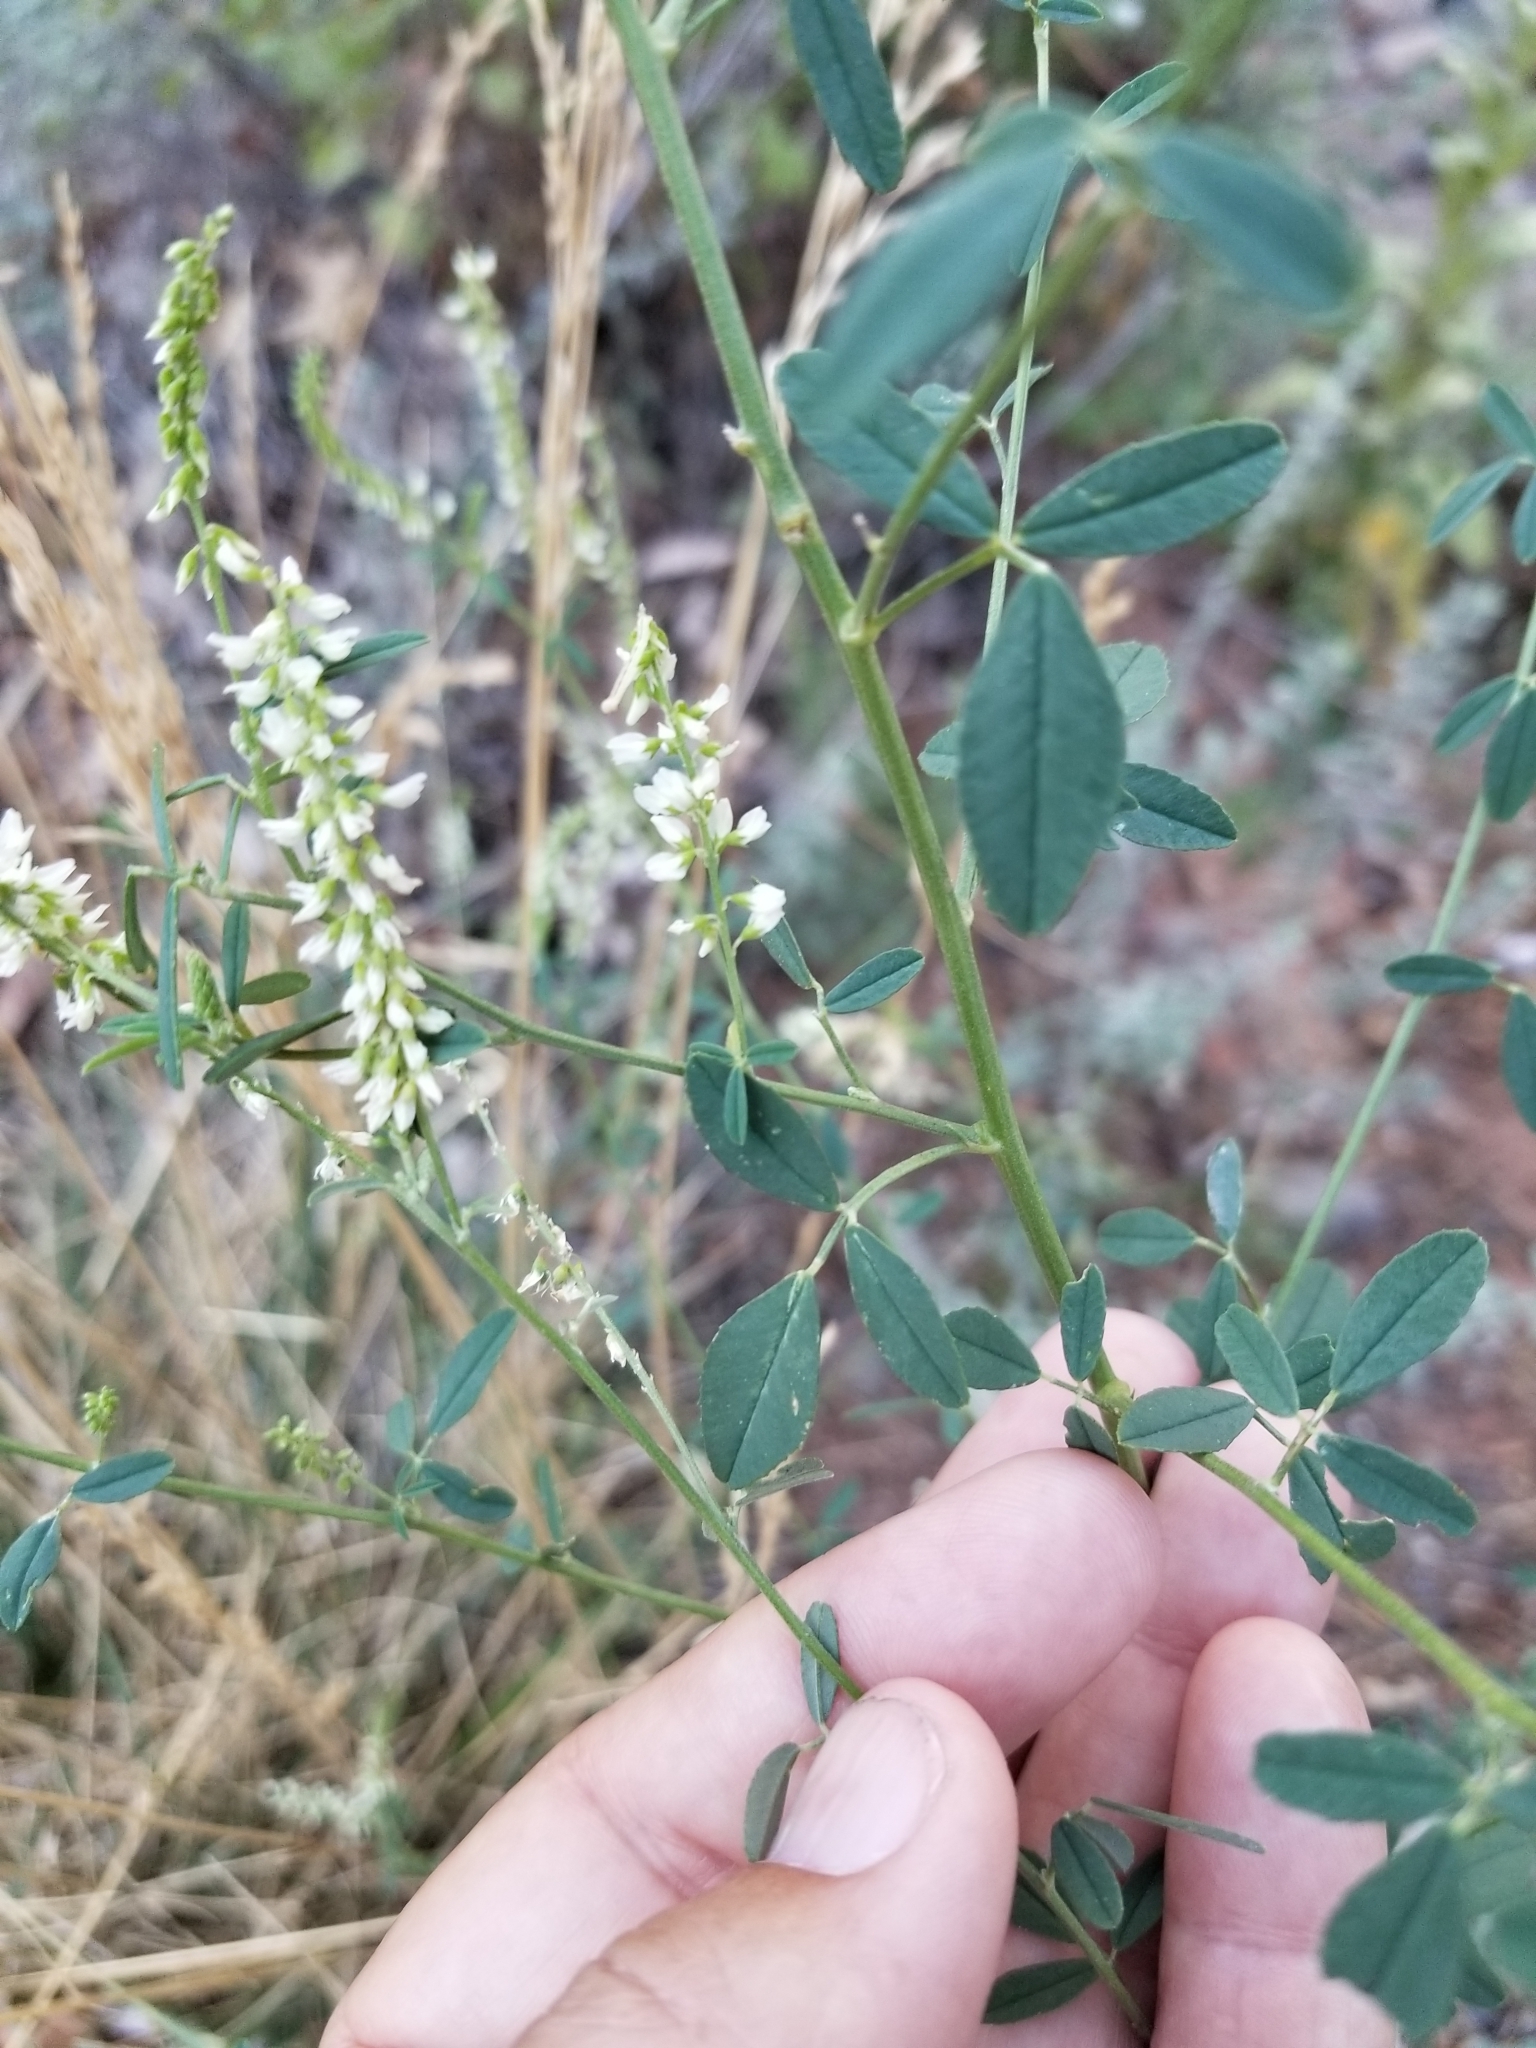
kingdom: Plantae
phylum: Tracheophyta
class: Magnoliopsida
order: Fabales
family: Fabaceae
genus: Melilotus
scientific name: Melilotus albus
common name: White melilot
